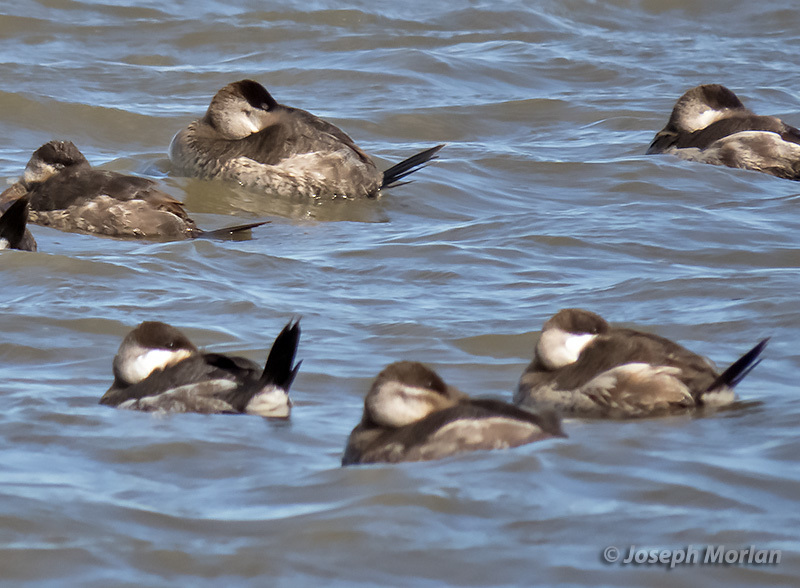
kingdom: Animalia
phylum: Chordata
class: Aves
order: Anseriformes
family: Anatidae
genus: Oxyura
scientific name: Oxyura jamaicensis
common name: Ruddy duck
